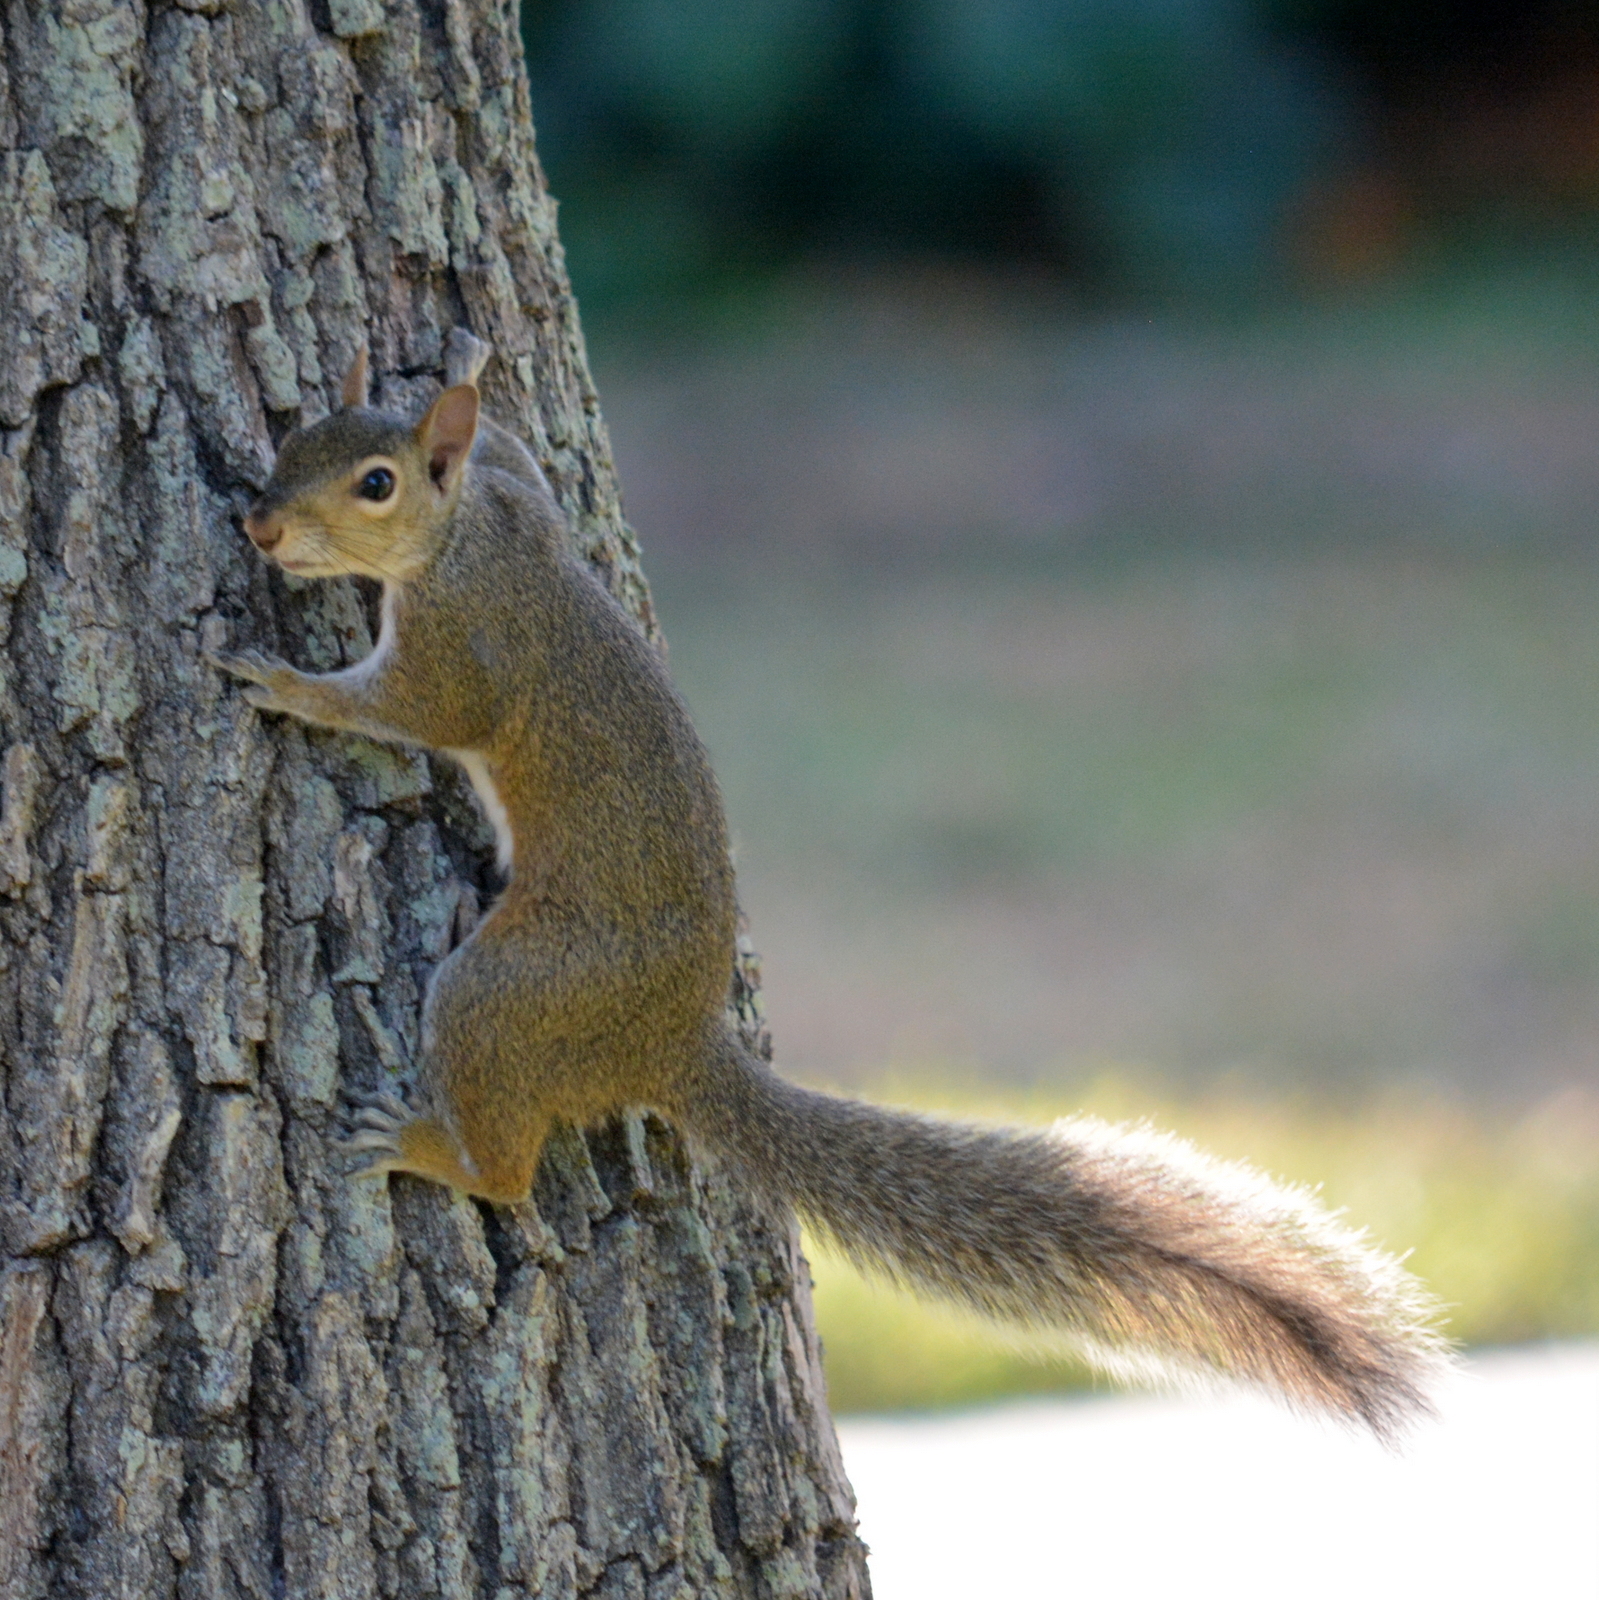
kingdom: Animalia
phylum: Chordata
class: Mammalia
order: Rodentia
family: Sciuridae
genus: Sciurus
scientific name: Sciurus carolinensis
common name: Eastern gray squirrel
